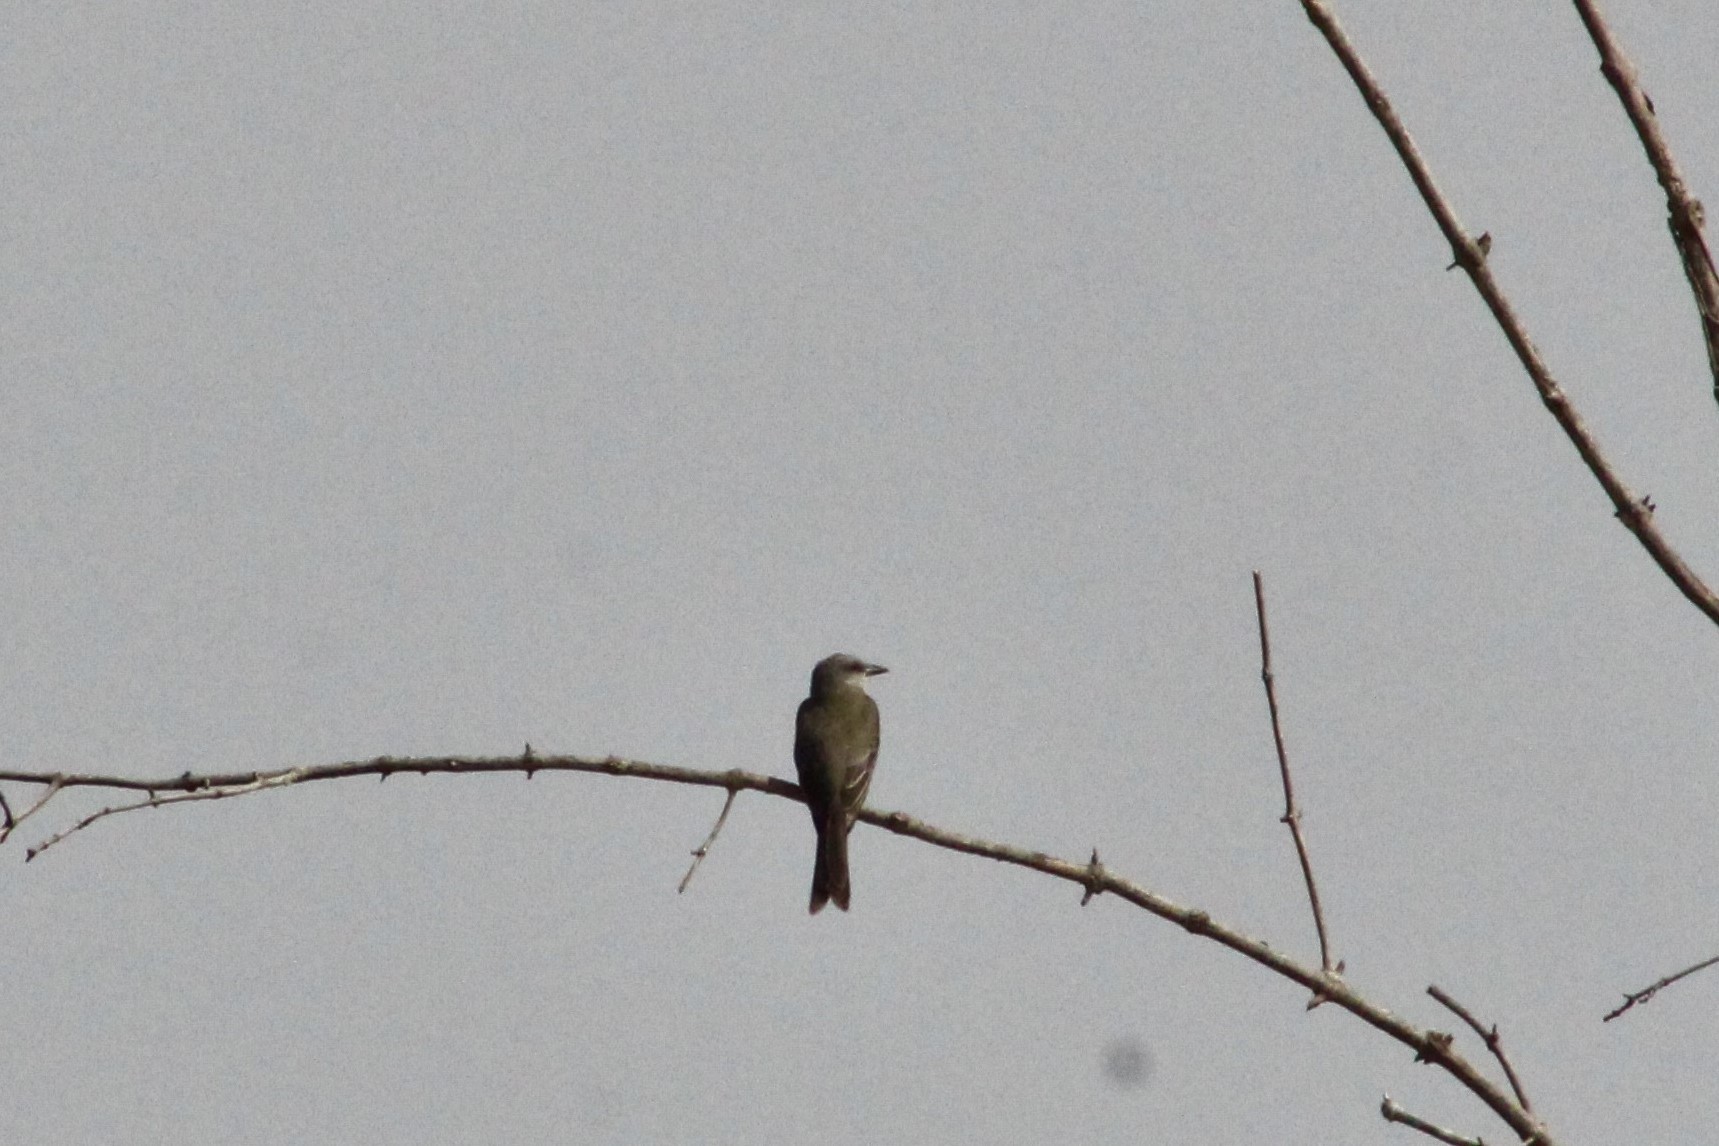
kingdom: Animalia
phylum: Chordata
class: Aves
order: Passeriformes
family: Tyrannidae
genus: Tyrannus
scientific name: Tyrannus melancholicus
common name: Tropical kingbird
